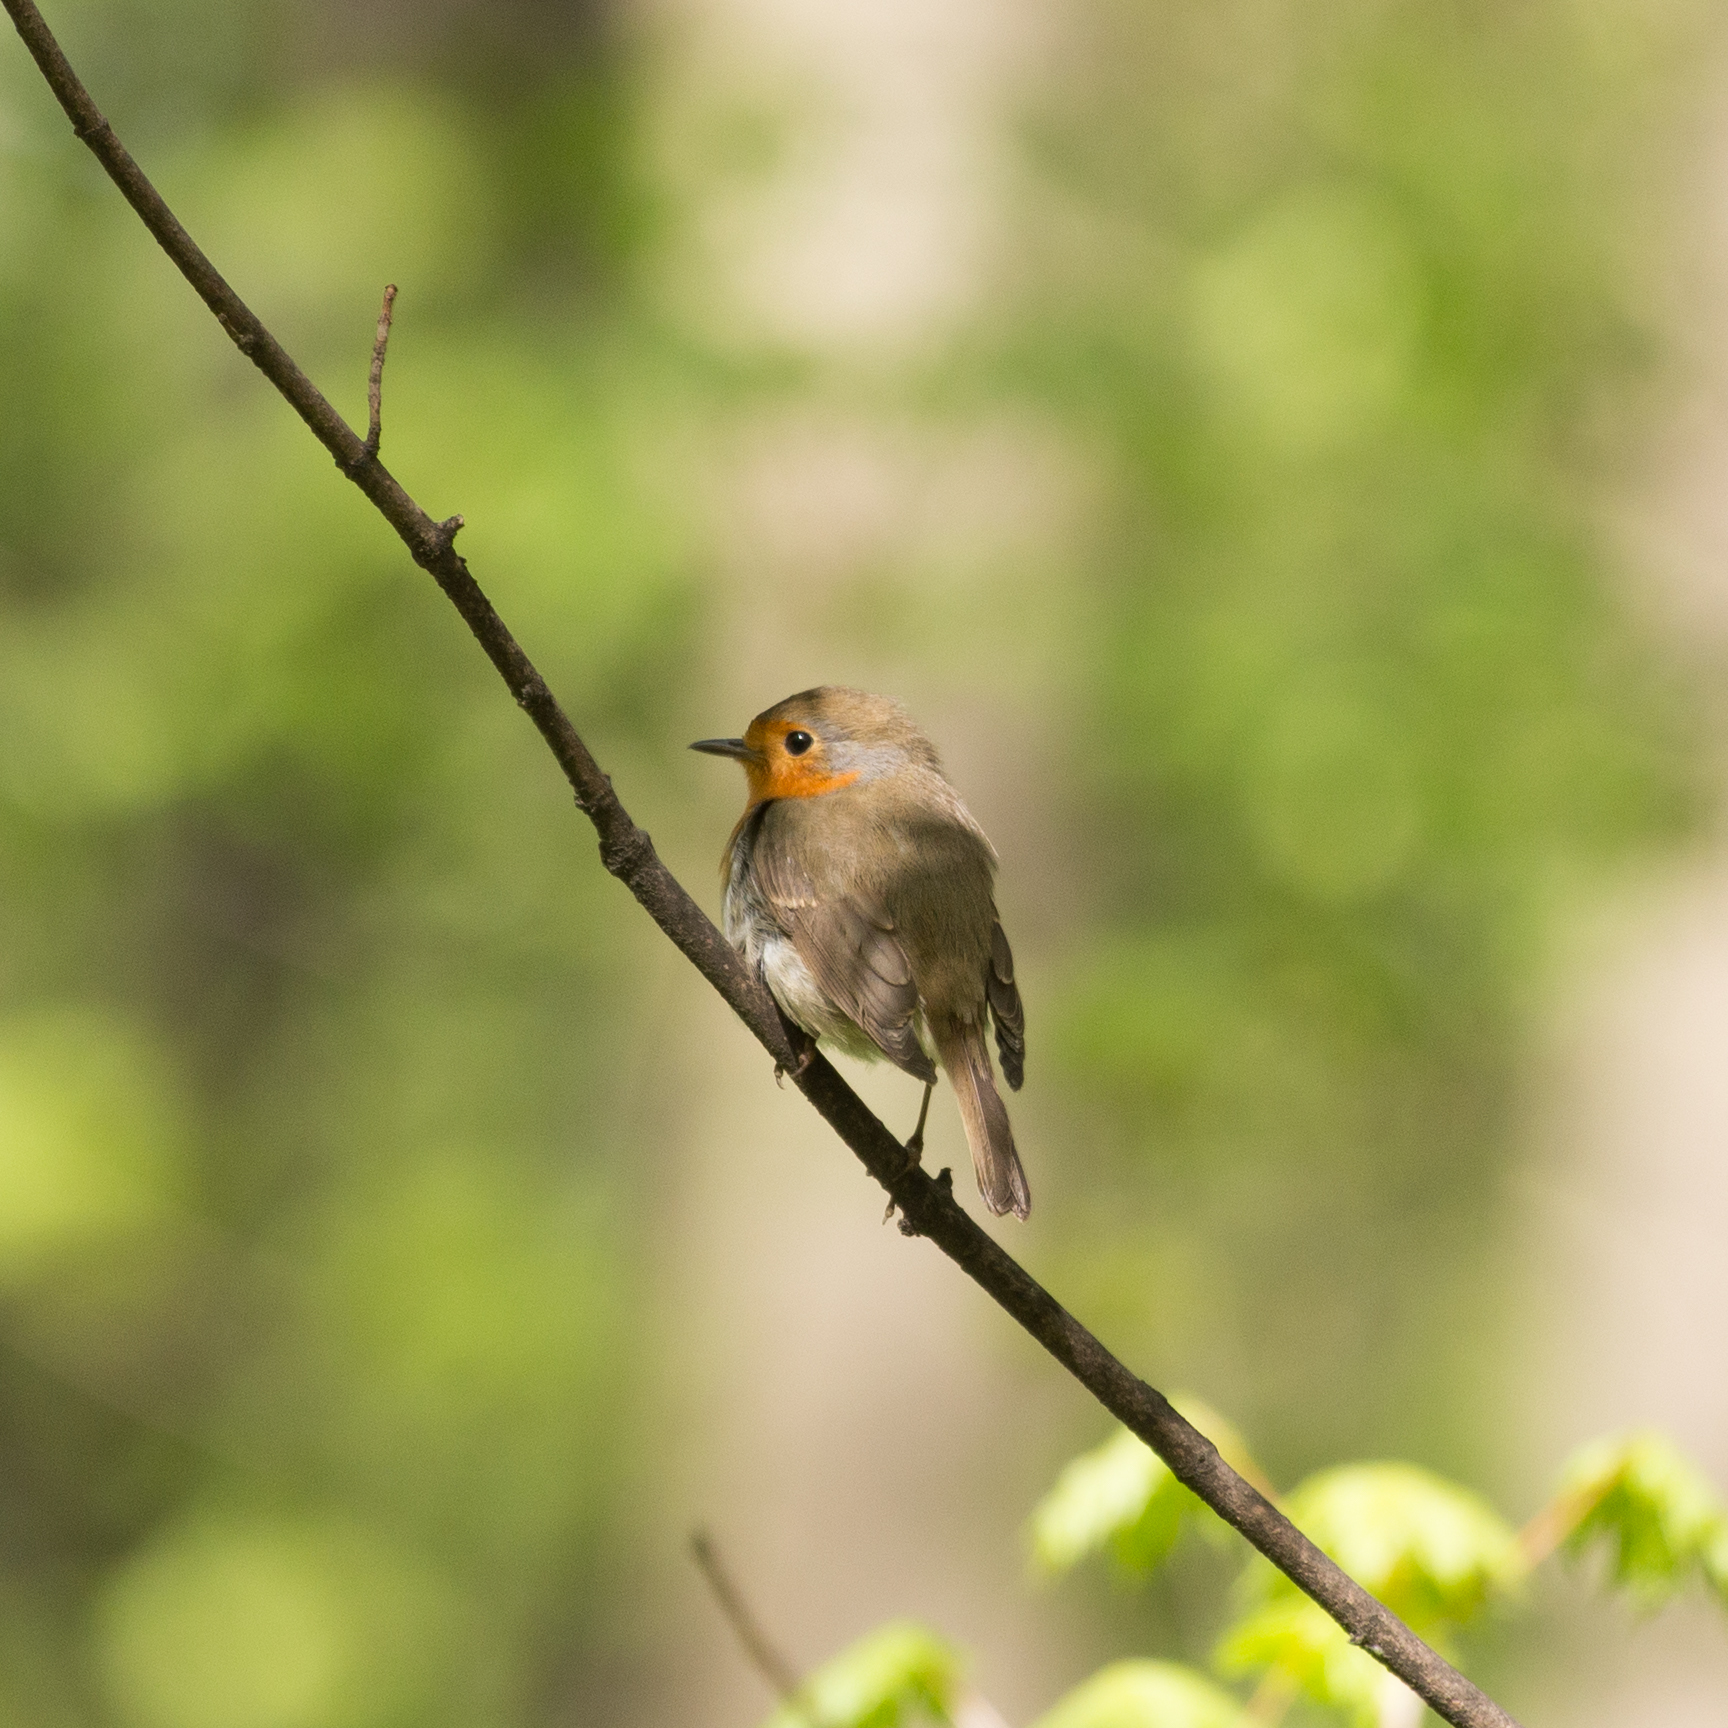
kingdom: Animalia
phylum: Chordata
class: Aves
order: Passeriformes
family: Muscicapidae
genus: Erithacus
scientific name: Erithacus rubecula
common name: European robin
